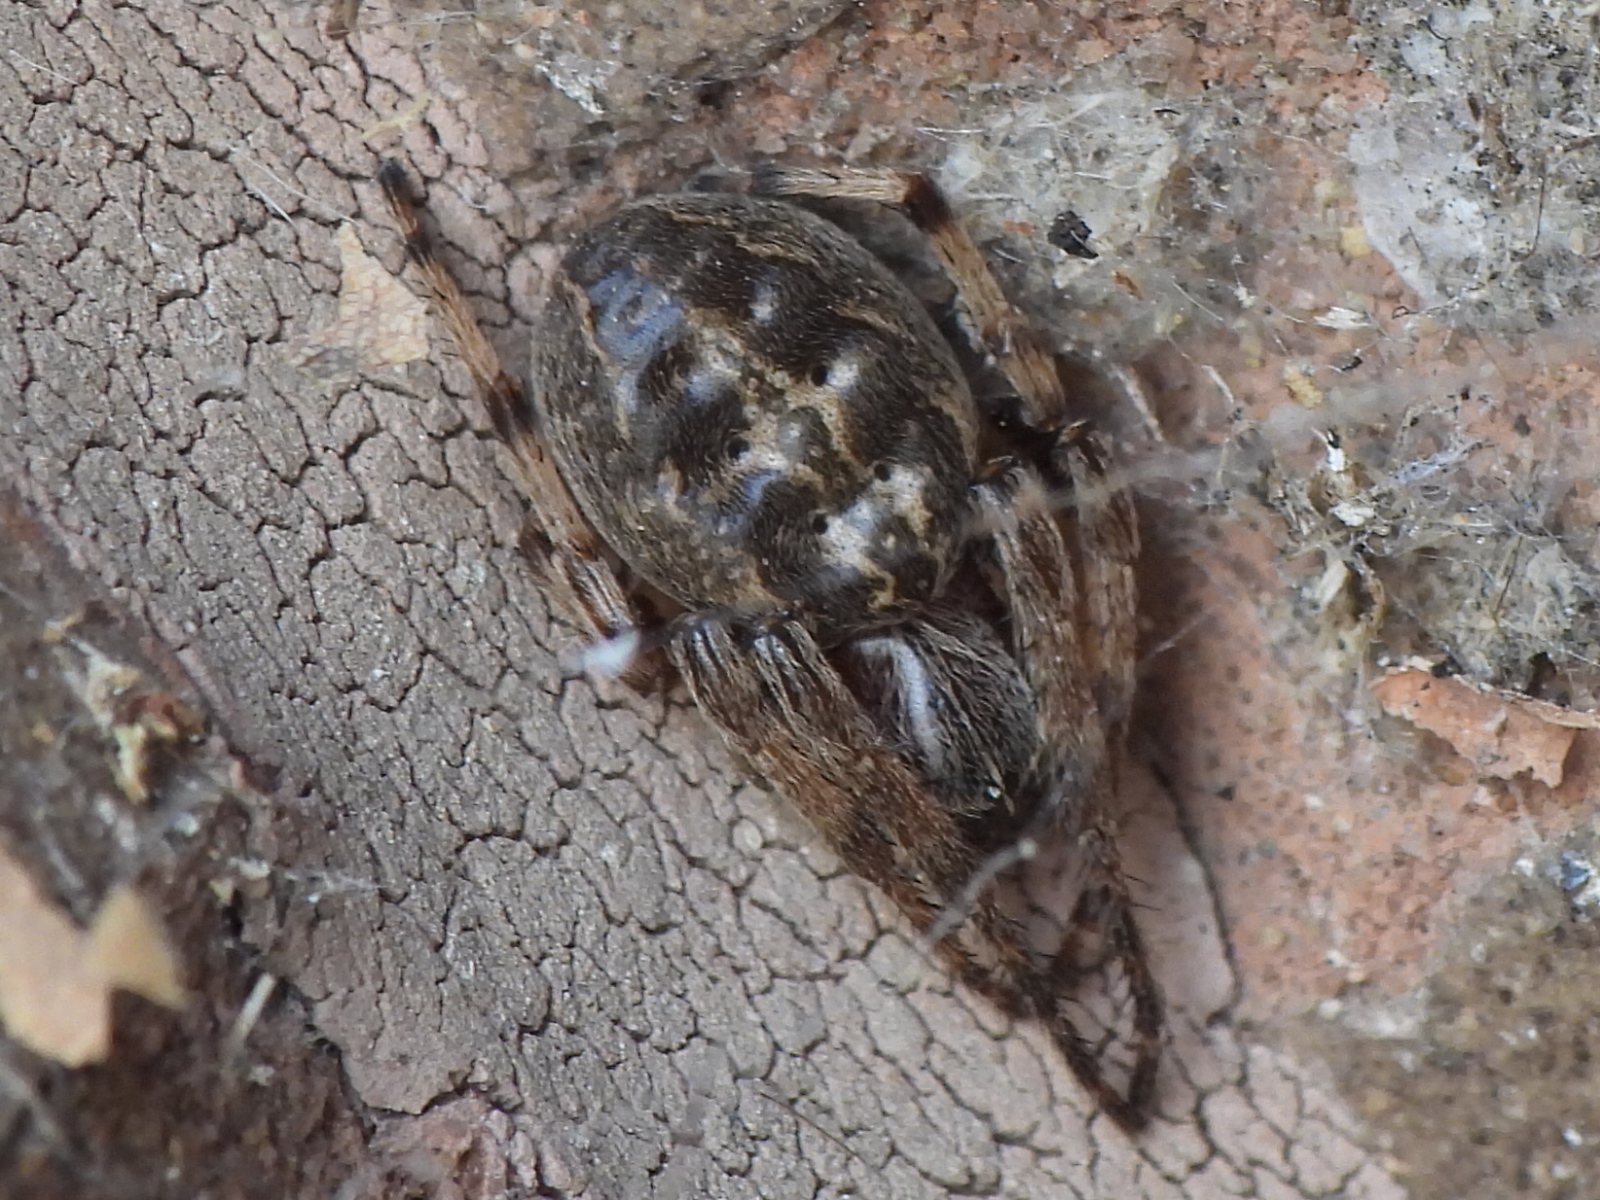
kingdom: Animalia
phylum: Arthropoda
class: Arachnida
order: Araneae
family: Araneidae
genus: Larinioides
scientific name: Larinioides cornutus
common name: Furrow orbweaver
